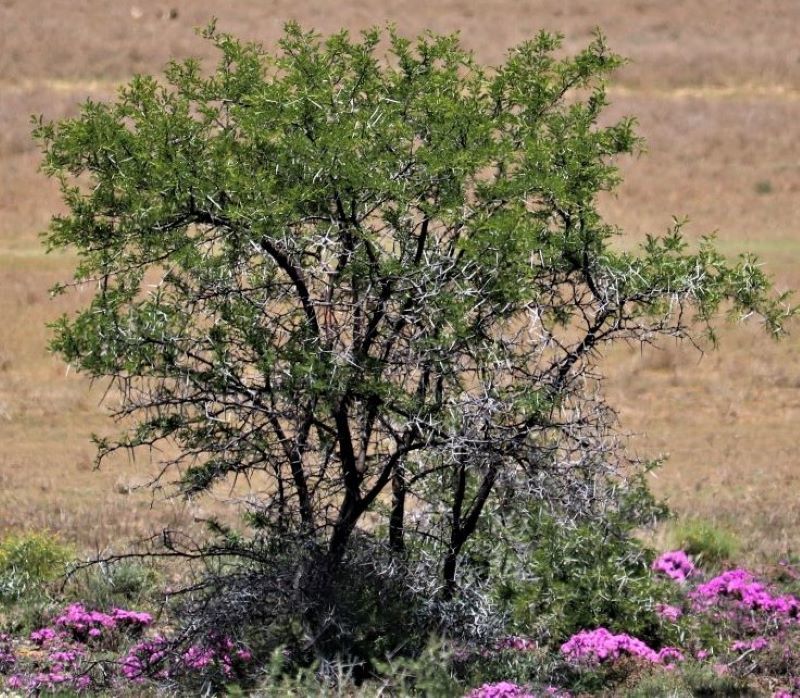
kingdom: Plantae
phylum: Tracheophyta
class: Magnoliopsida
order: Fabales
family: Fabaceae
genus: Vachellia
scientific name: Vachellia karroo
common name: Sweet thorn
